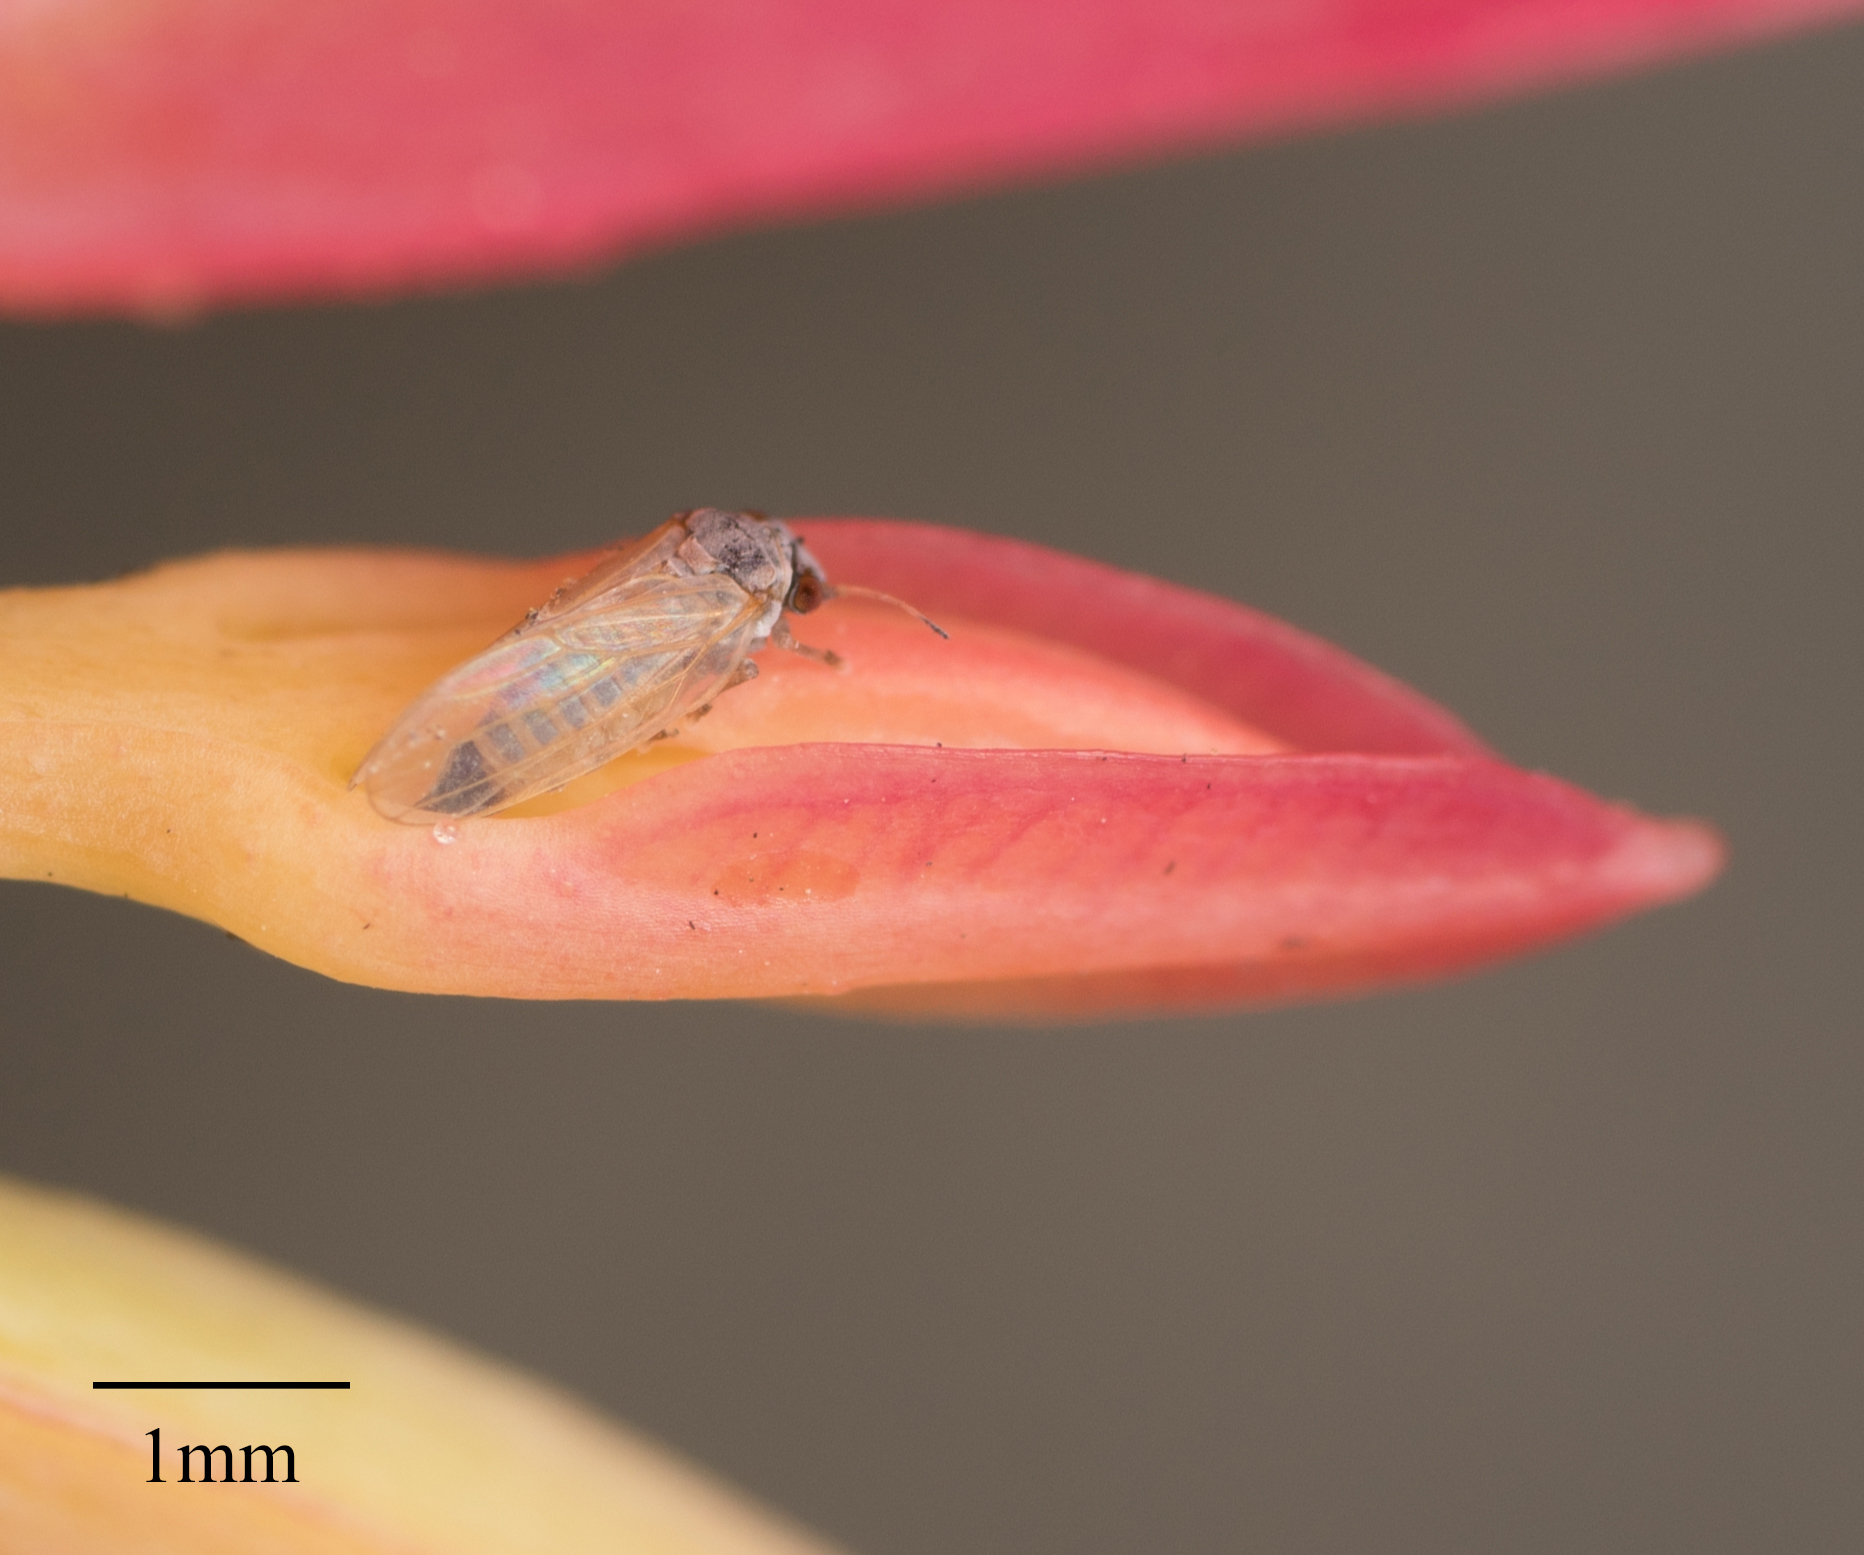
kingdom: Animalia
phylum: Arthropoda
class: Insecta
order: Hemiptera
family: Aphalaridae
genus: Ctenarytaina
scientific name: Ctenarytaina eucalypti
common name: Blue gum psyllid
